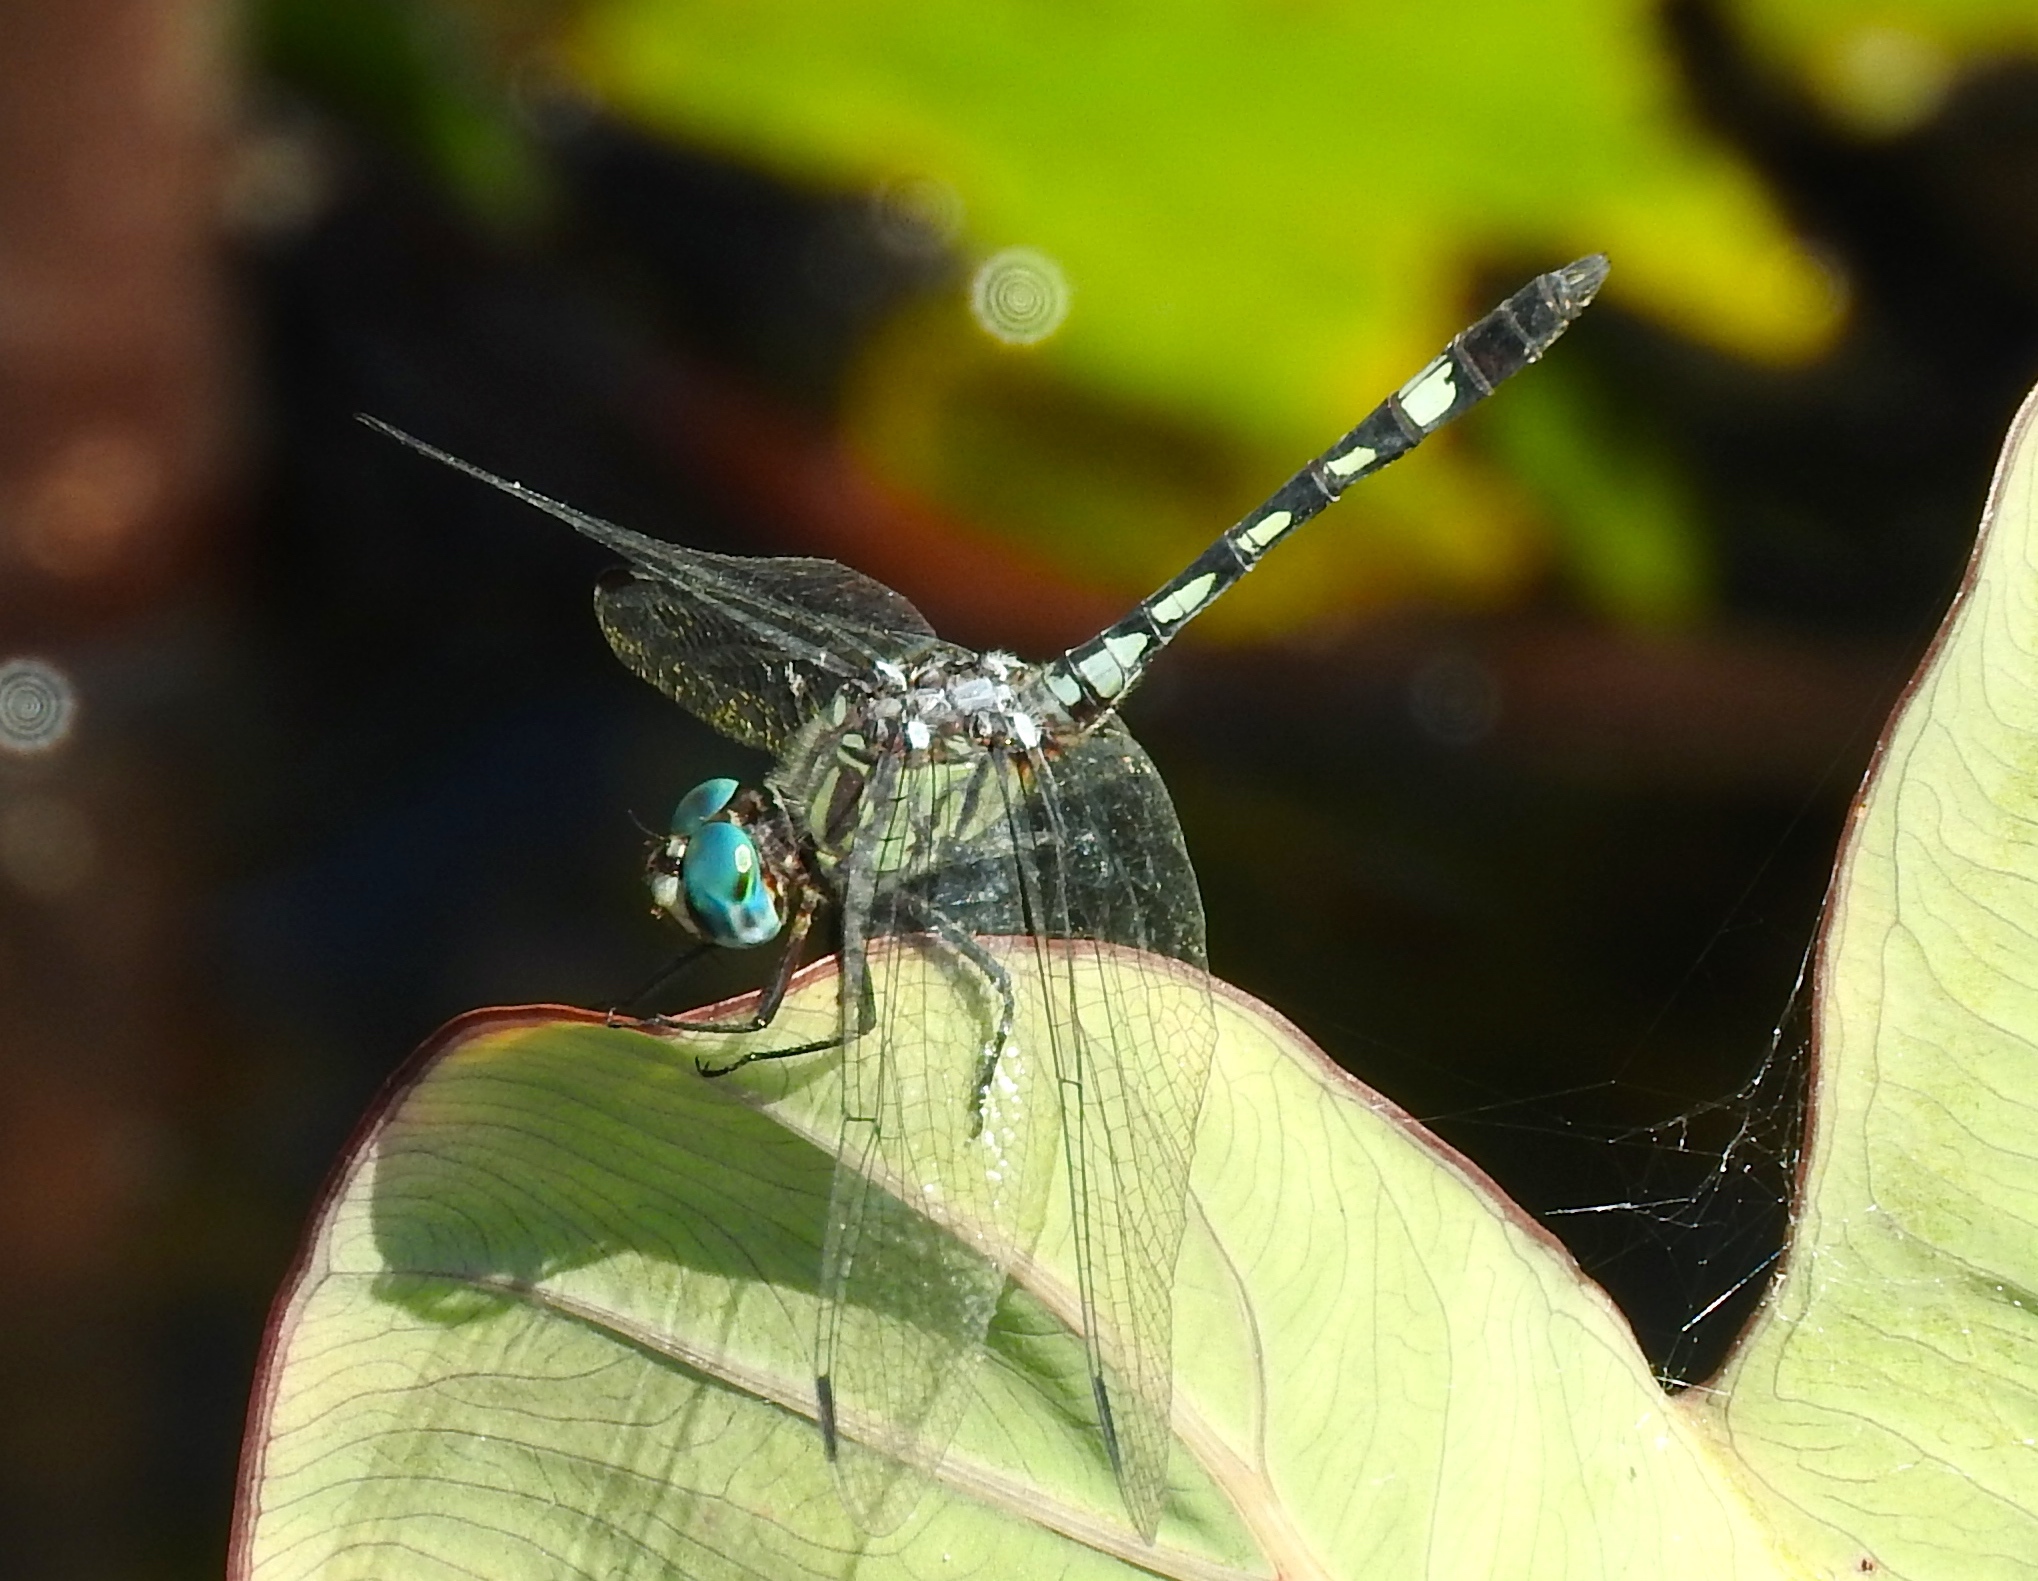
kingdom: Animalia
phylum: Arthropoda
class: Insecta
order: Odonata
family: Libellulidae
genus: Micrathyria
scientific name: Micrathyria hagenii
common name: Thornbush dasher
